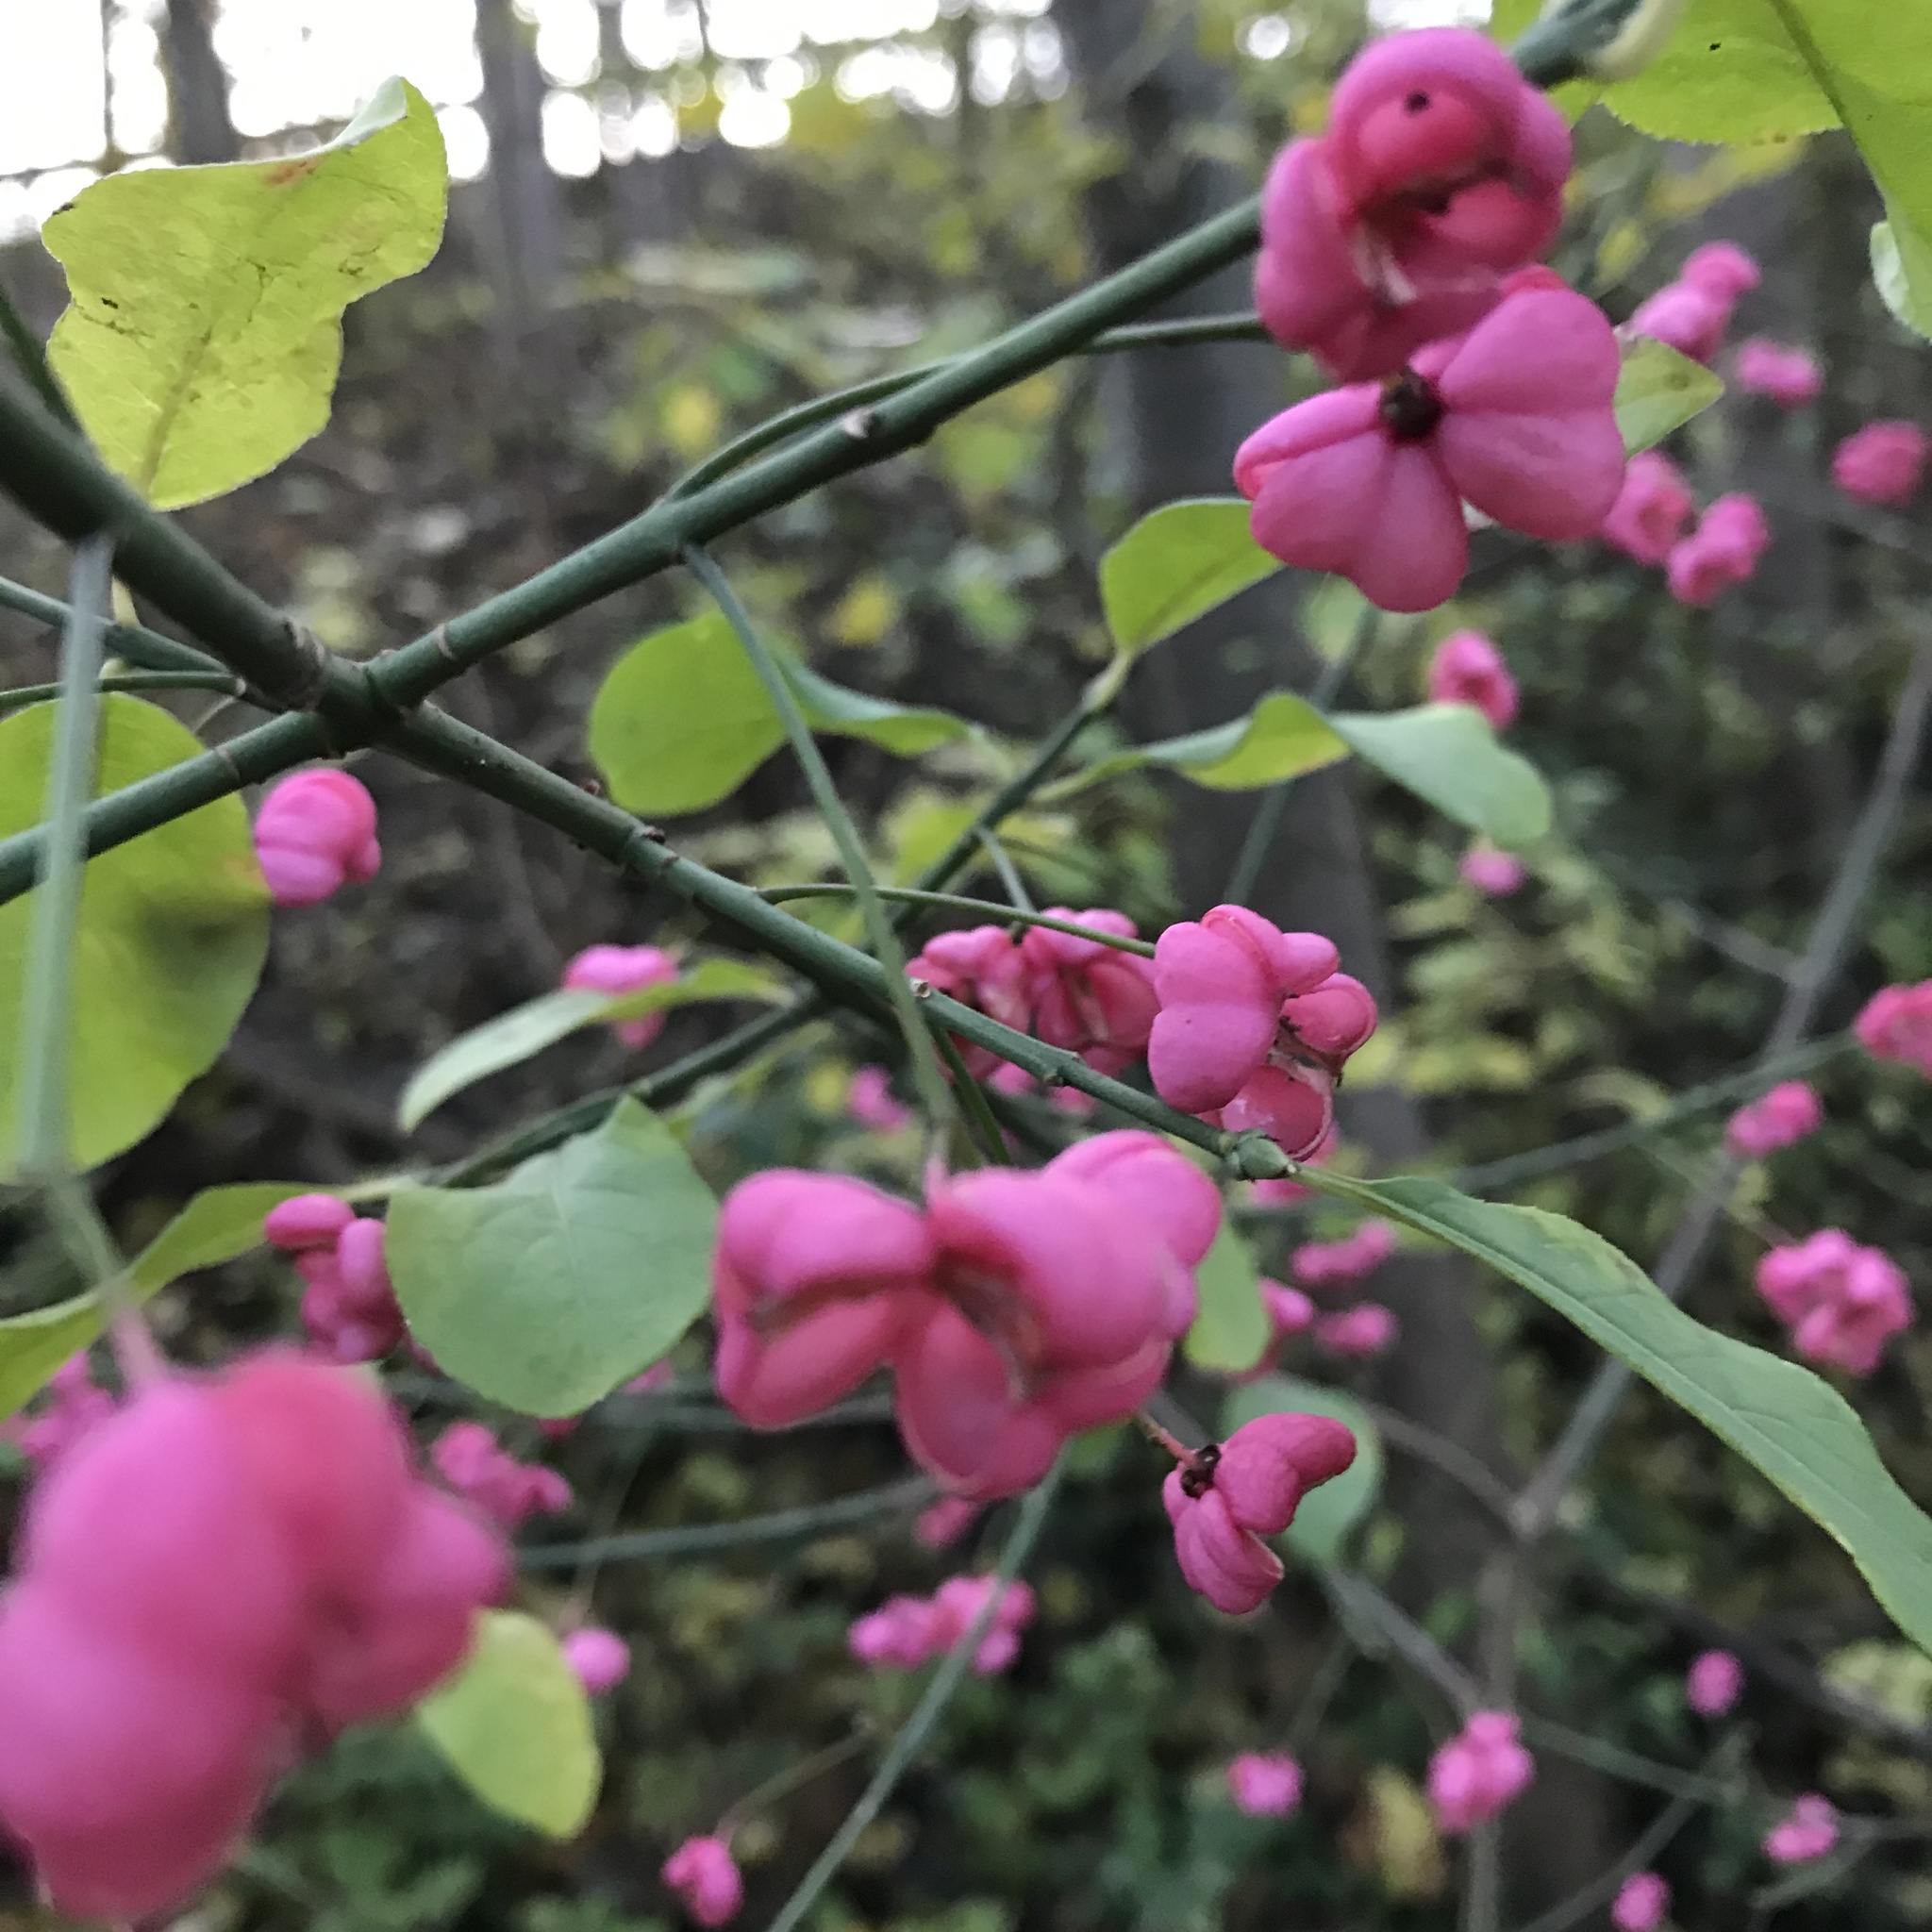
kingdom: Plantae
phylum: Tracheophyta
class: Magnoliopsida
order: Celastrales
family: Celastraceae
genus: Euonymus
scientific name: Euonymus europaeus
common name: Spindle
